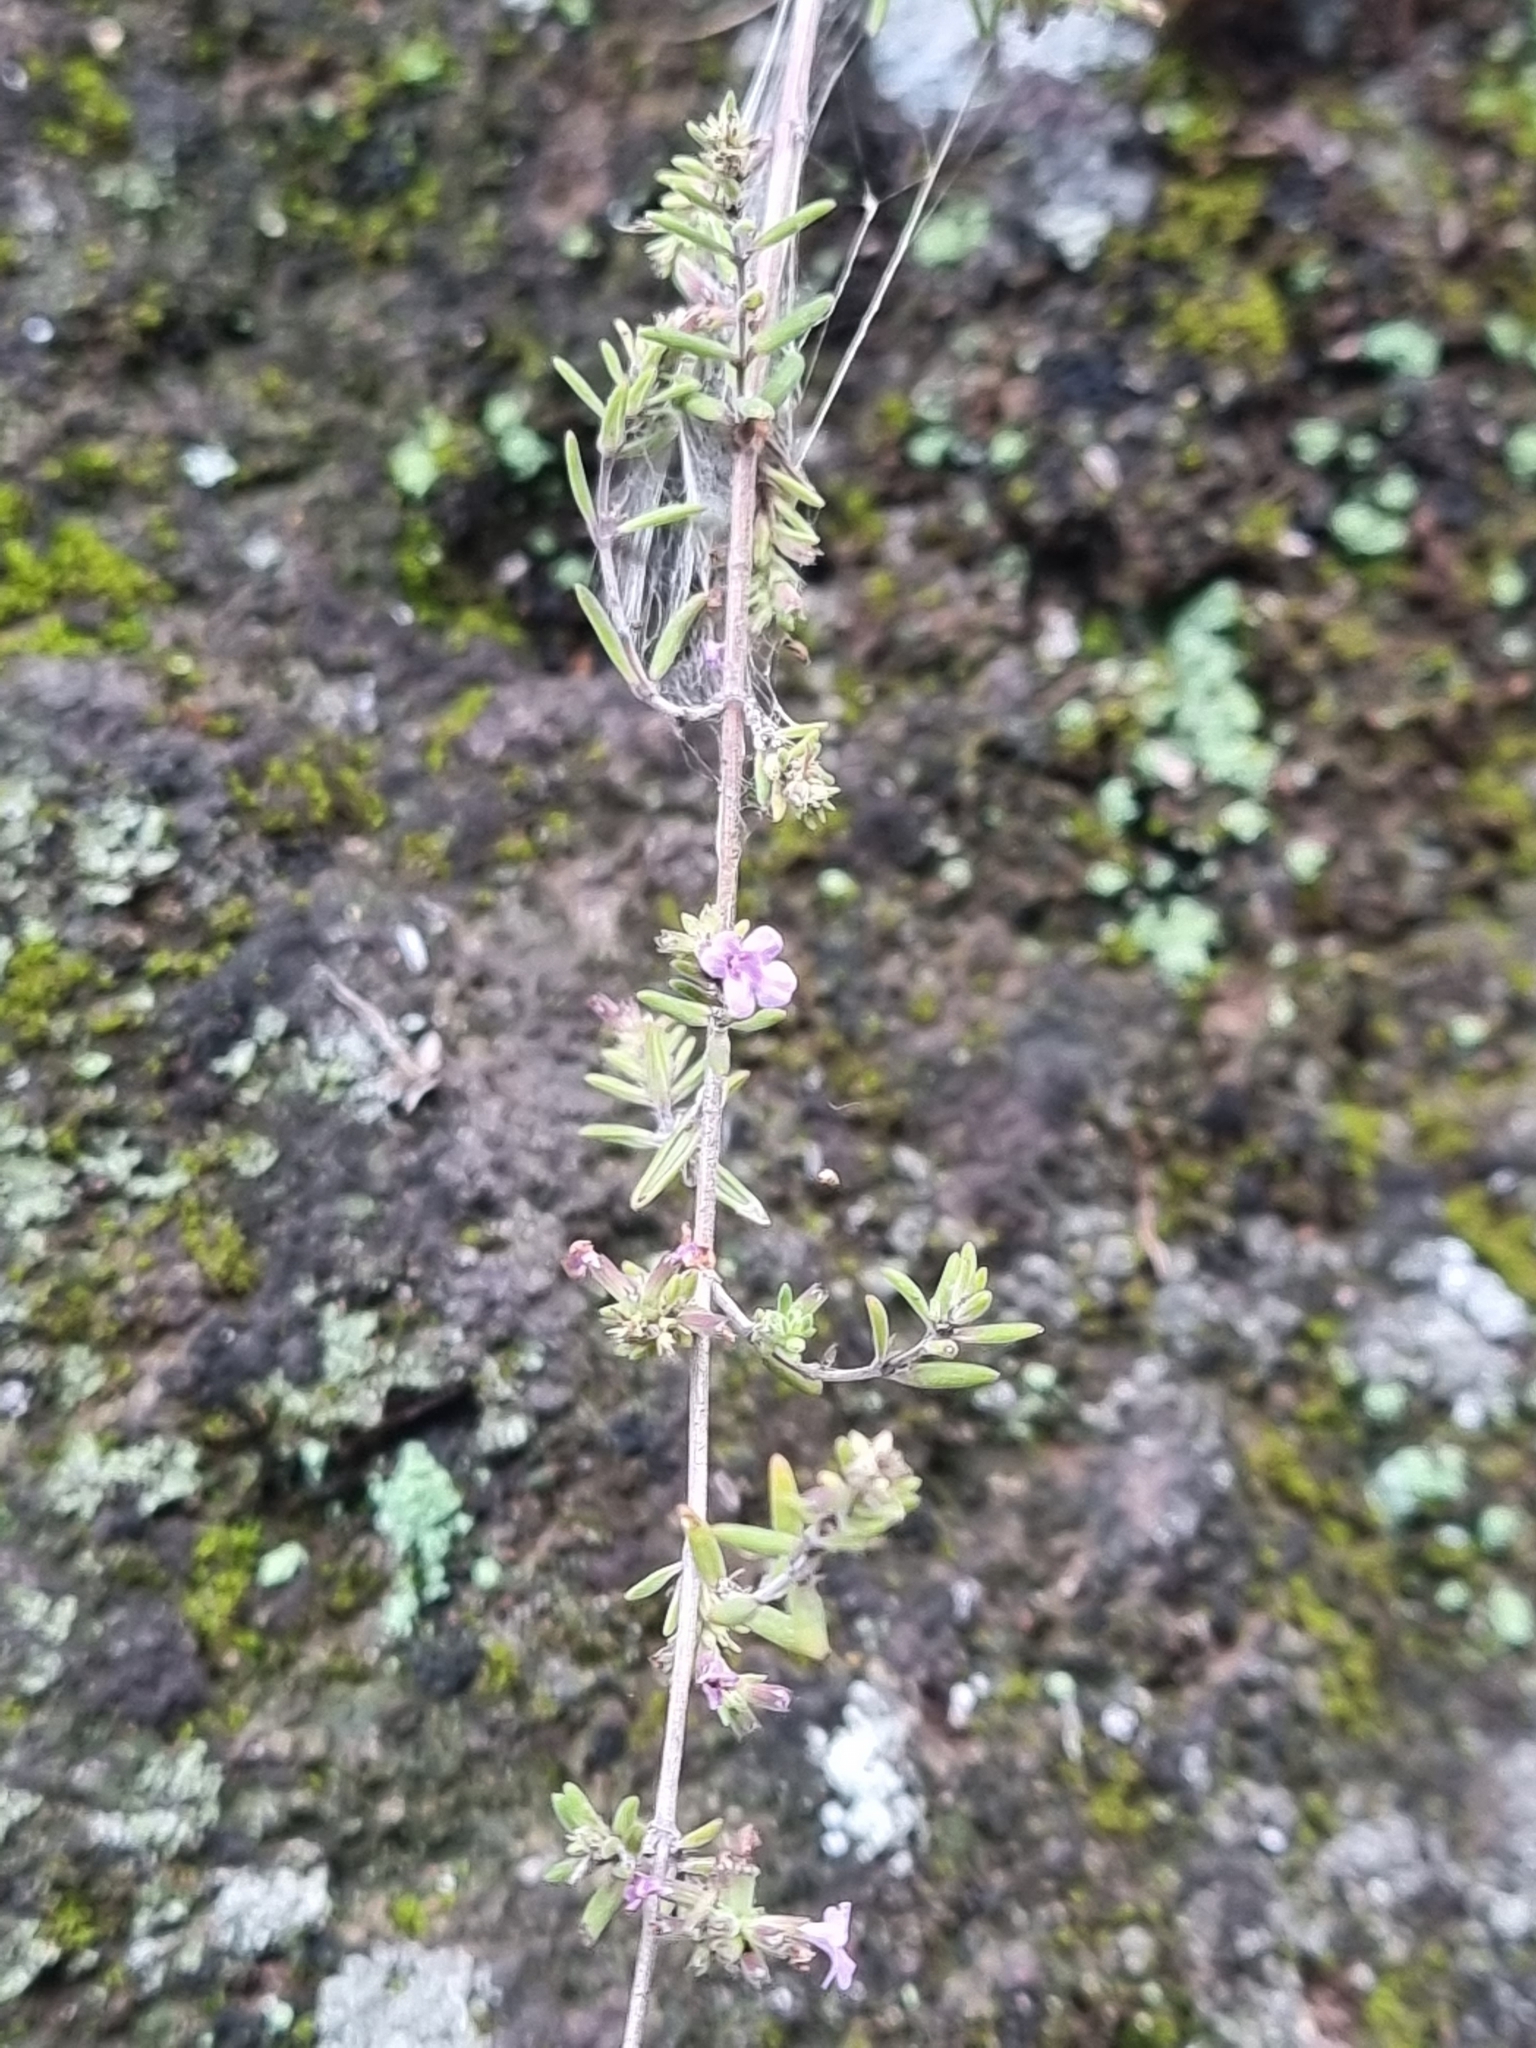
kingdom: Plantae
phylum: Tracheophyta
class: Magnoliopsida
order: Lamiales
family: Lamiaceae
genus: Micromeria
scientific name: Micromeria maderensis
